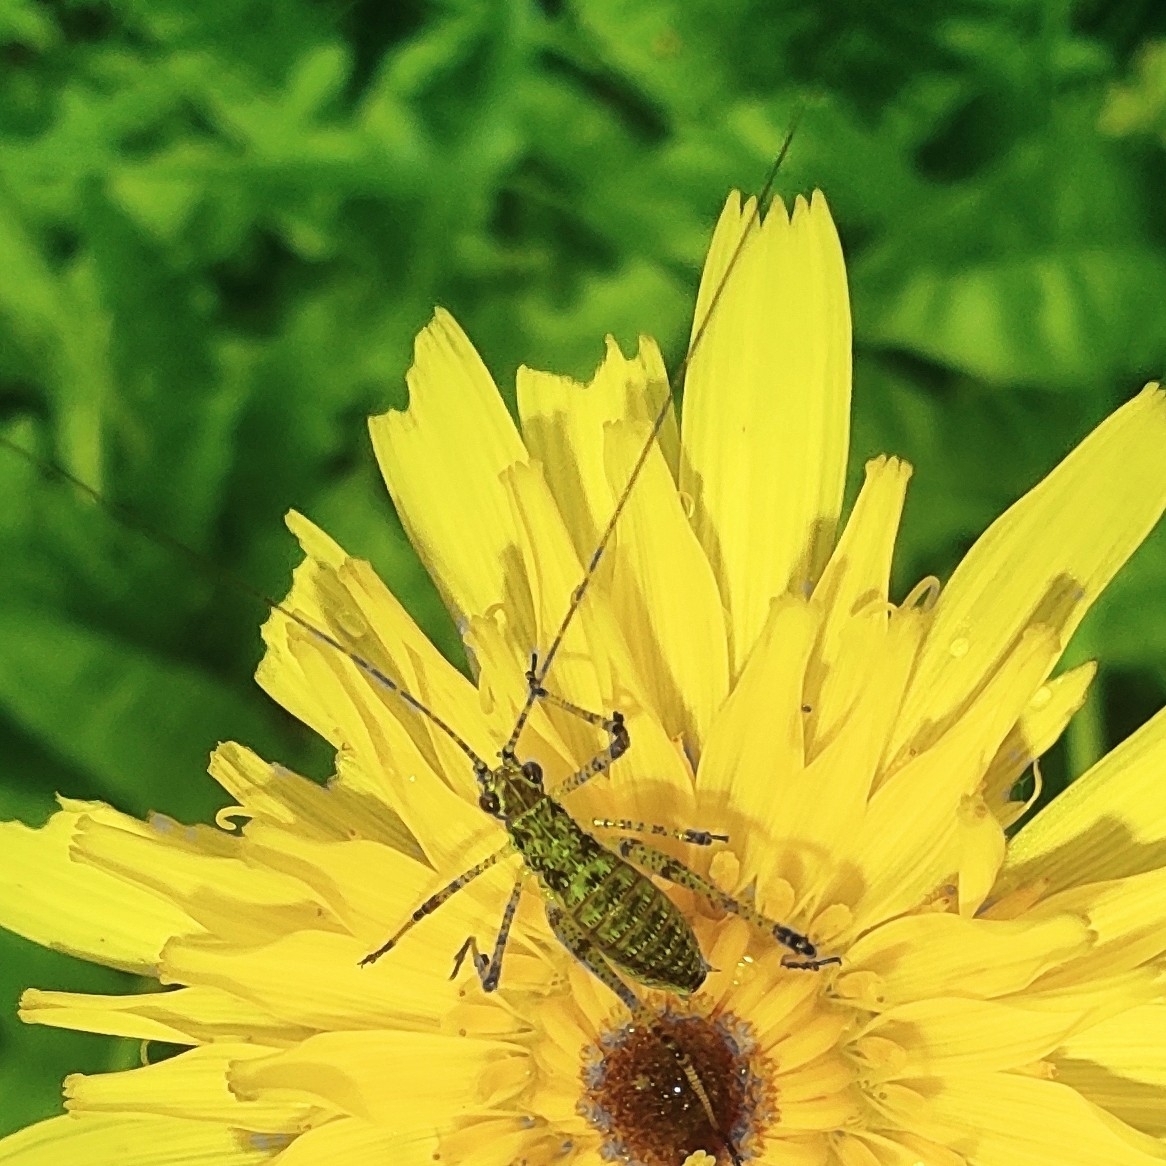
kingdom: Animalia
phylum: Arthropoda
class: Insecta
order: Orthoptera
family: Tettigoniidae
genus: Phaneroptera
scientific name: Phaneroptera nana
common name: Southern sickle bush-cricket
